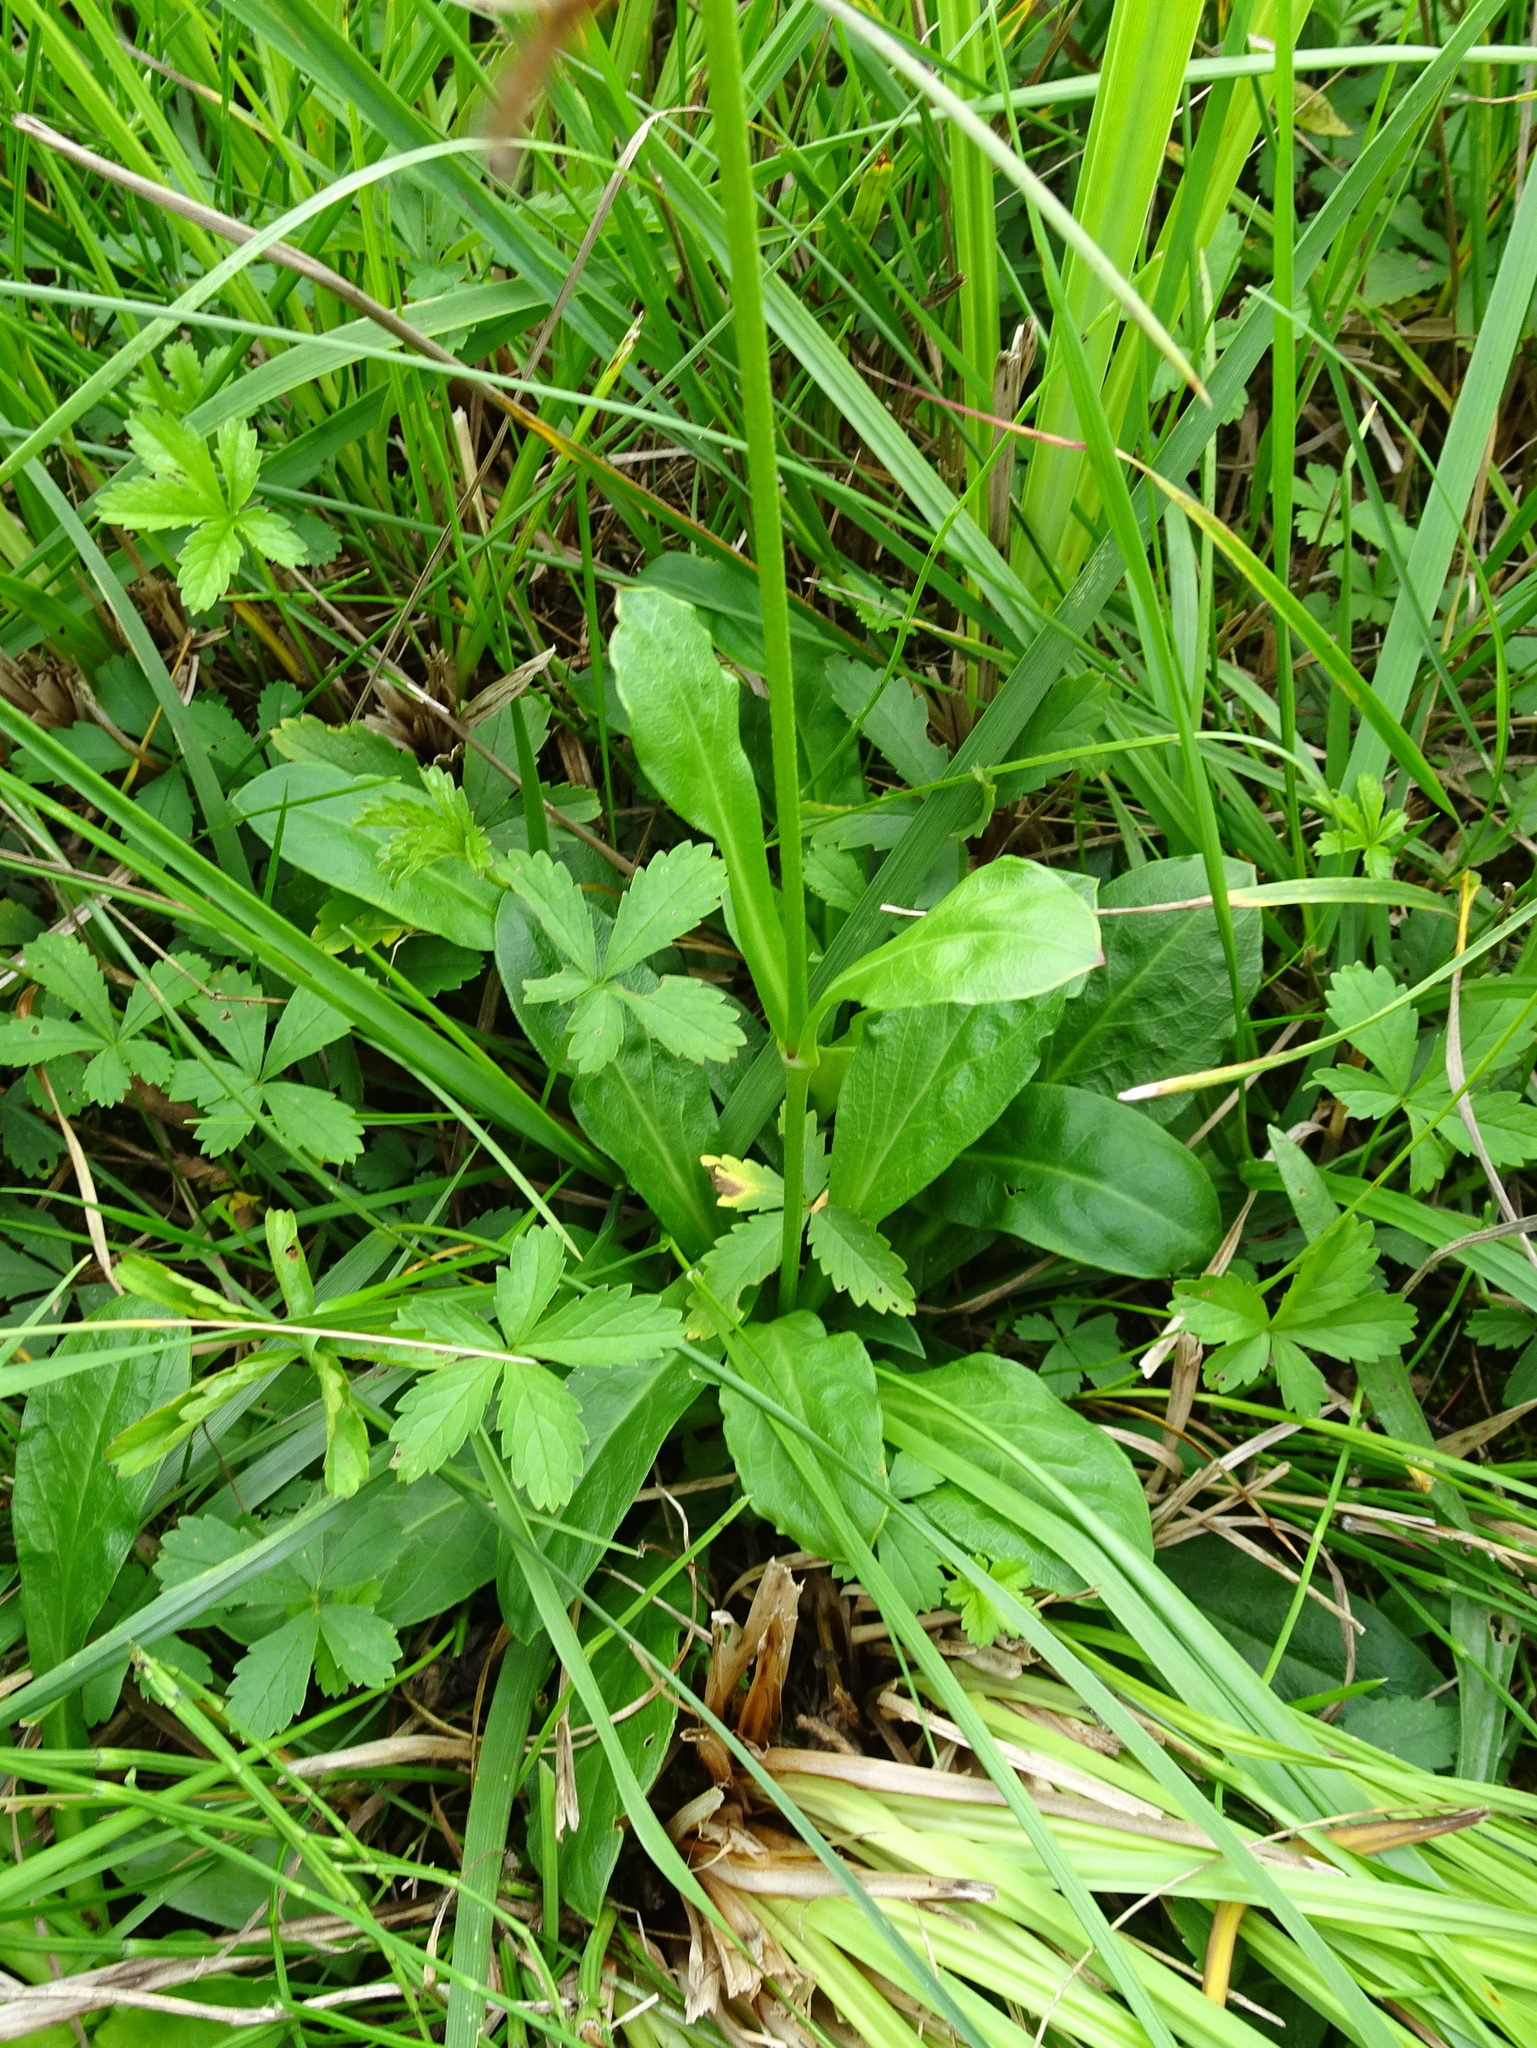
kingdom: Plantae
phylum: Tracheophyta
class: Magnoliopsida
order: Caryophyllales
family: Caryophyllaceae
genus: Silene
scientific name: Silene flos-cuculi
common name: Ragged-robin
